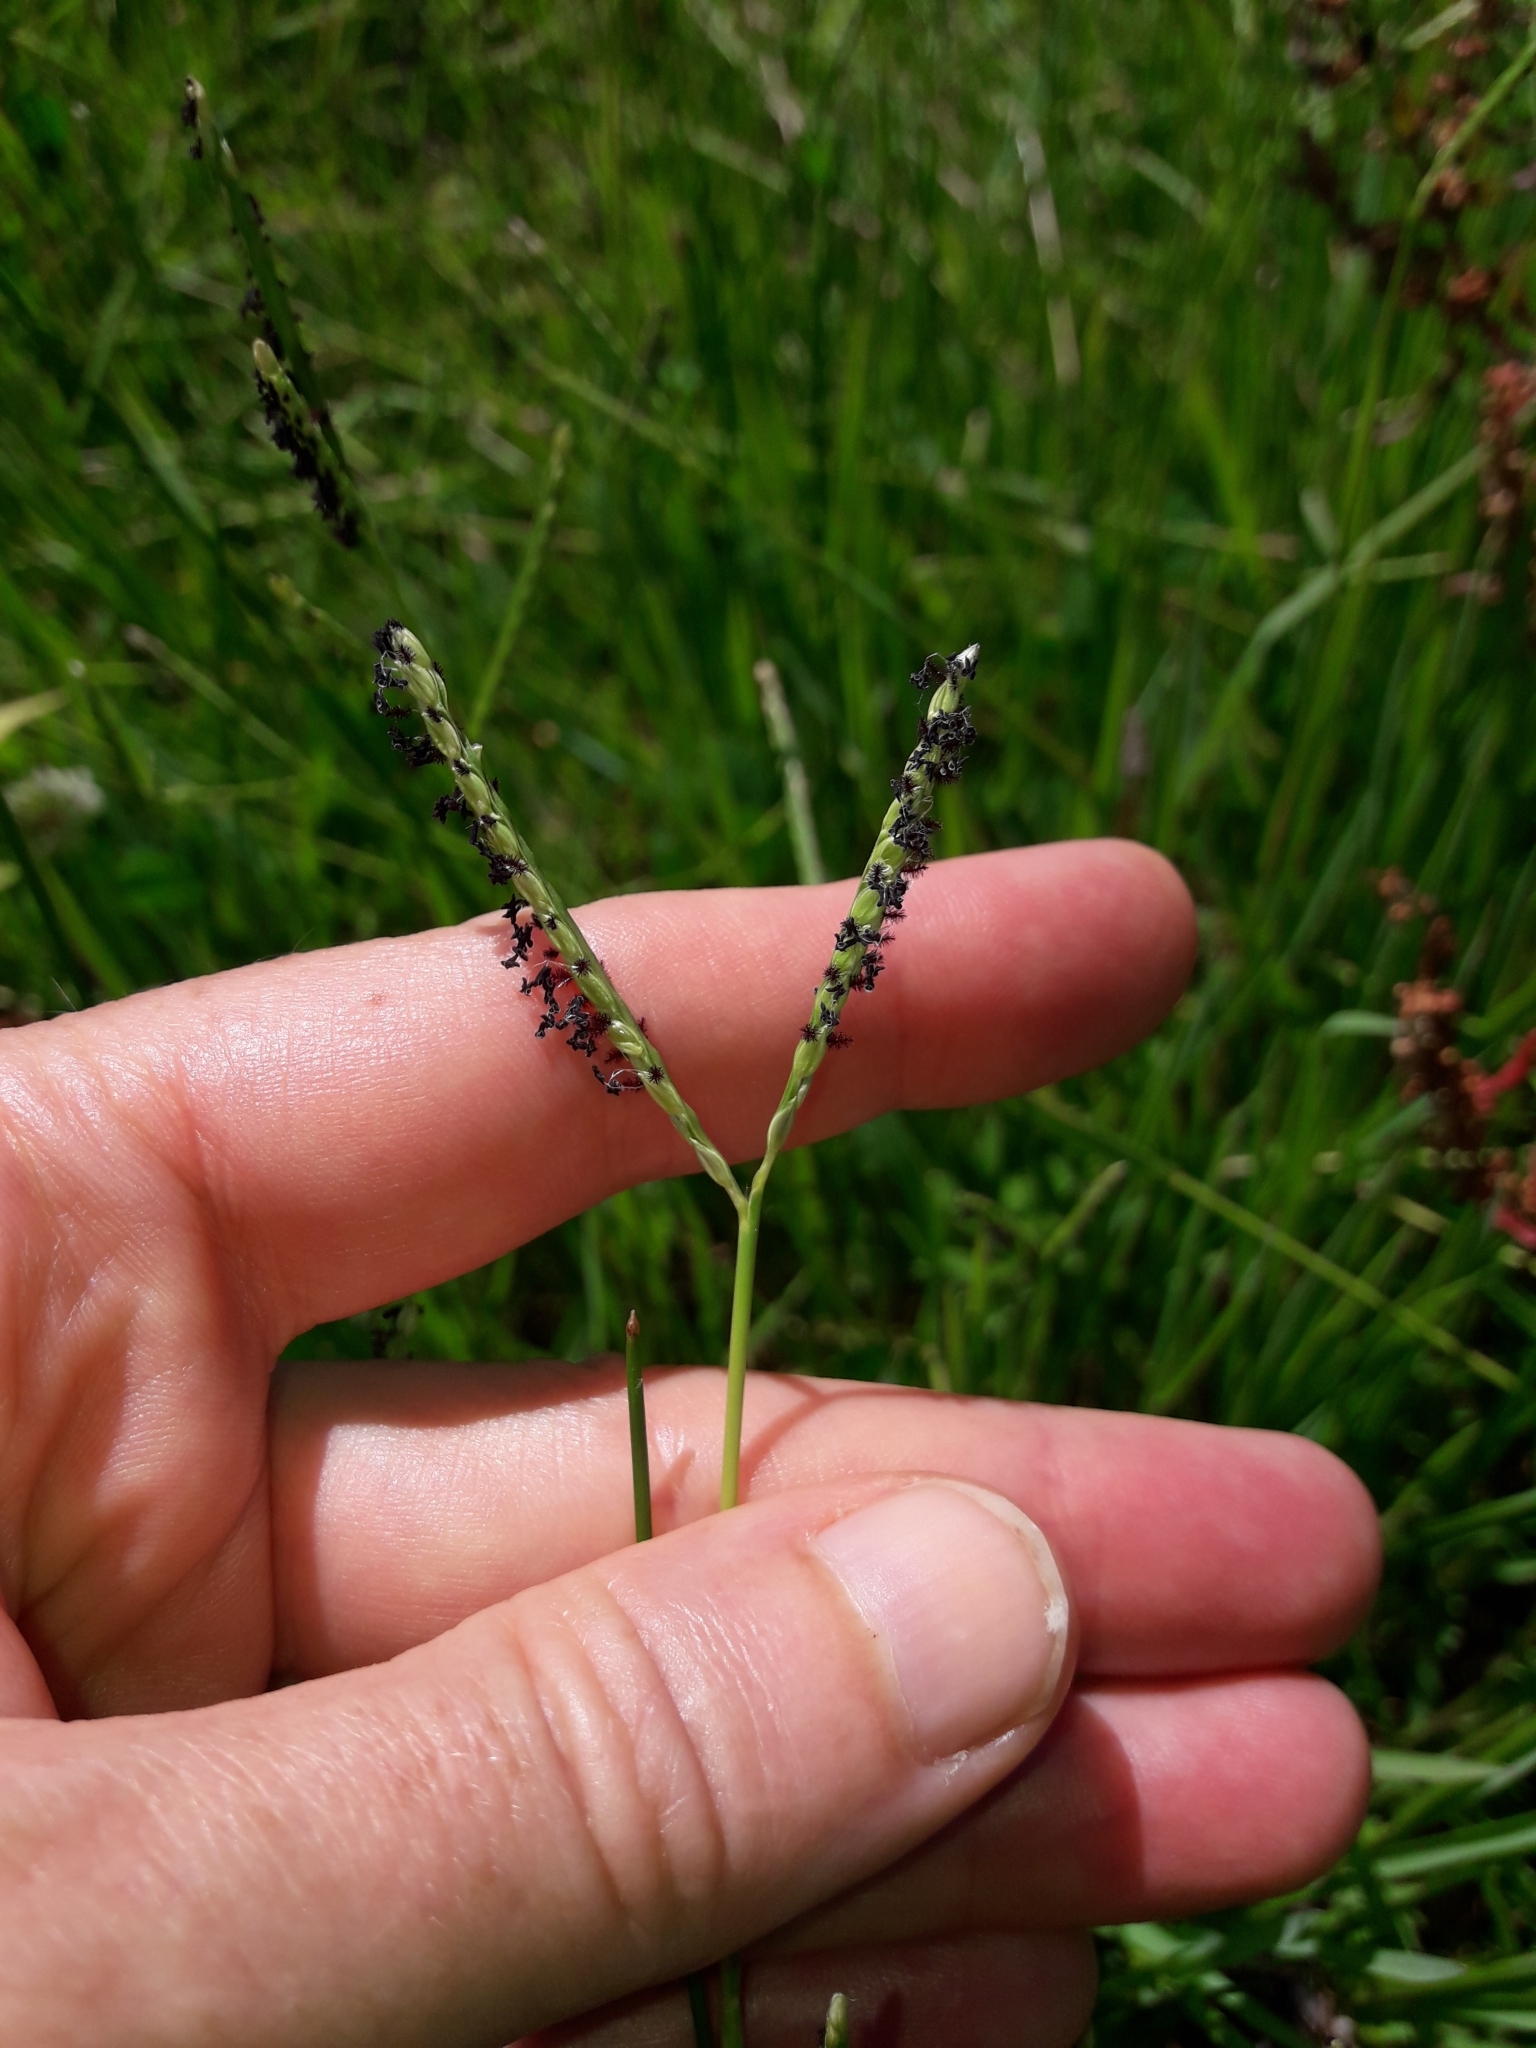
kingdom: Plantae
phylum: Tracheophyta
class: Liliopsida
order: Poales
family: Poaceae
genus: Paspalum
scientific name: Paspalum distichum
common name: Knotgrass
